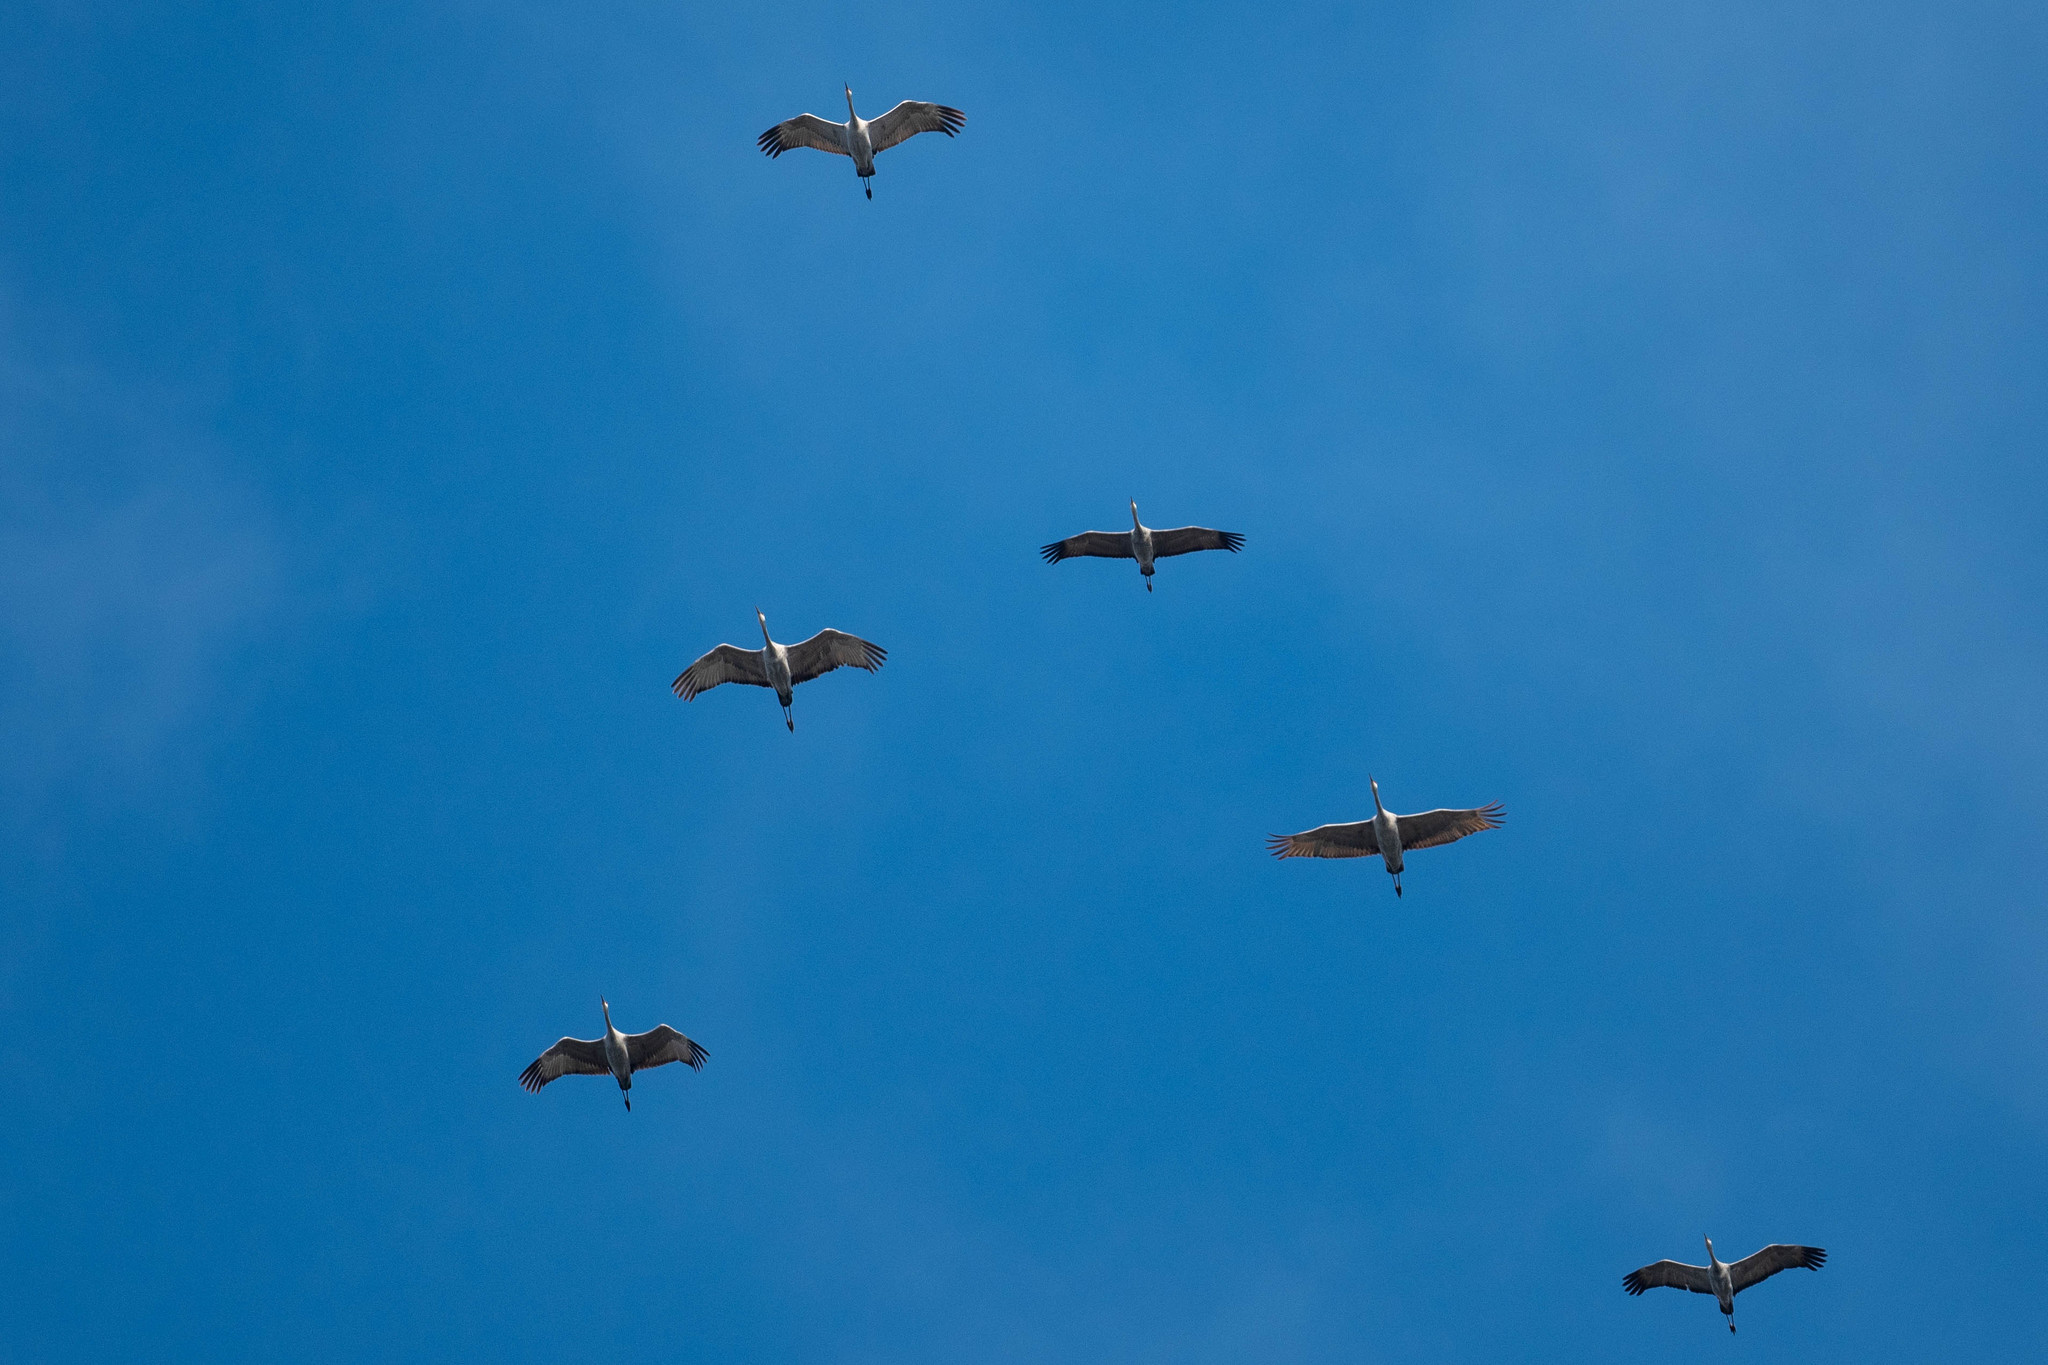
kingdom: Animalia
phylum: Chordata
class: Aves
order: Gruiformes
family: Gruidae
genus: Grus
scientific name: Grus canadensis
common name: Sandhill crane
